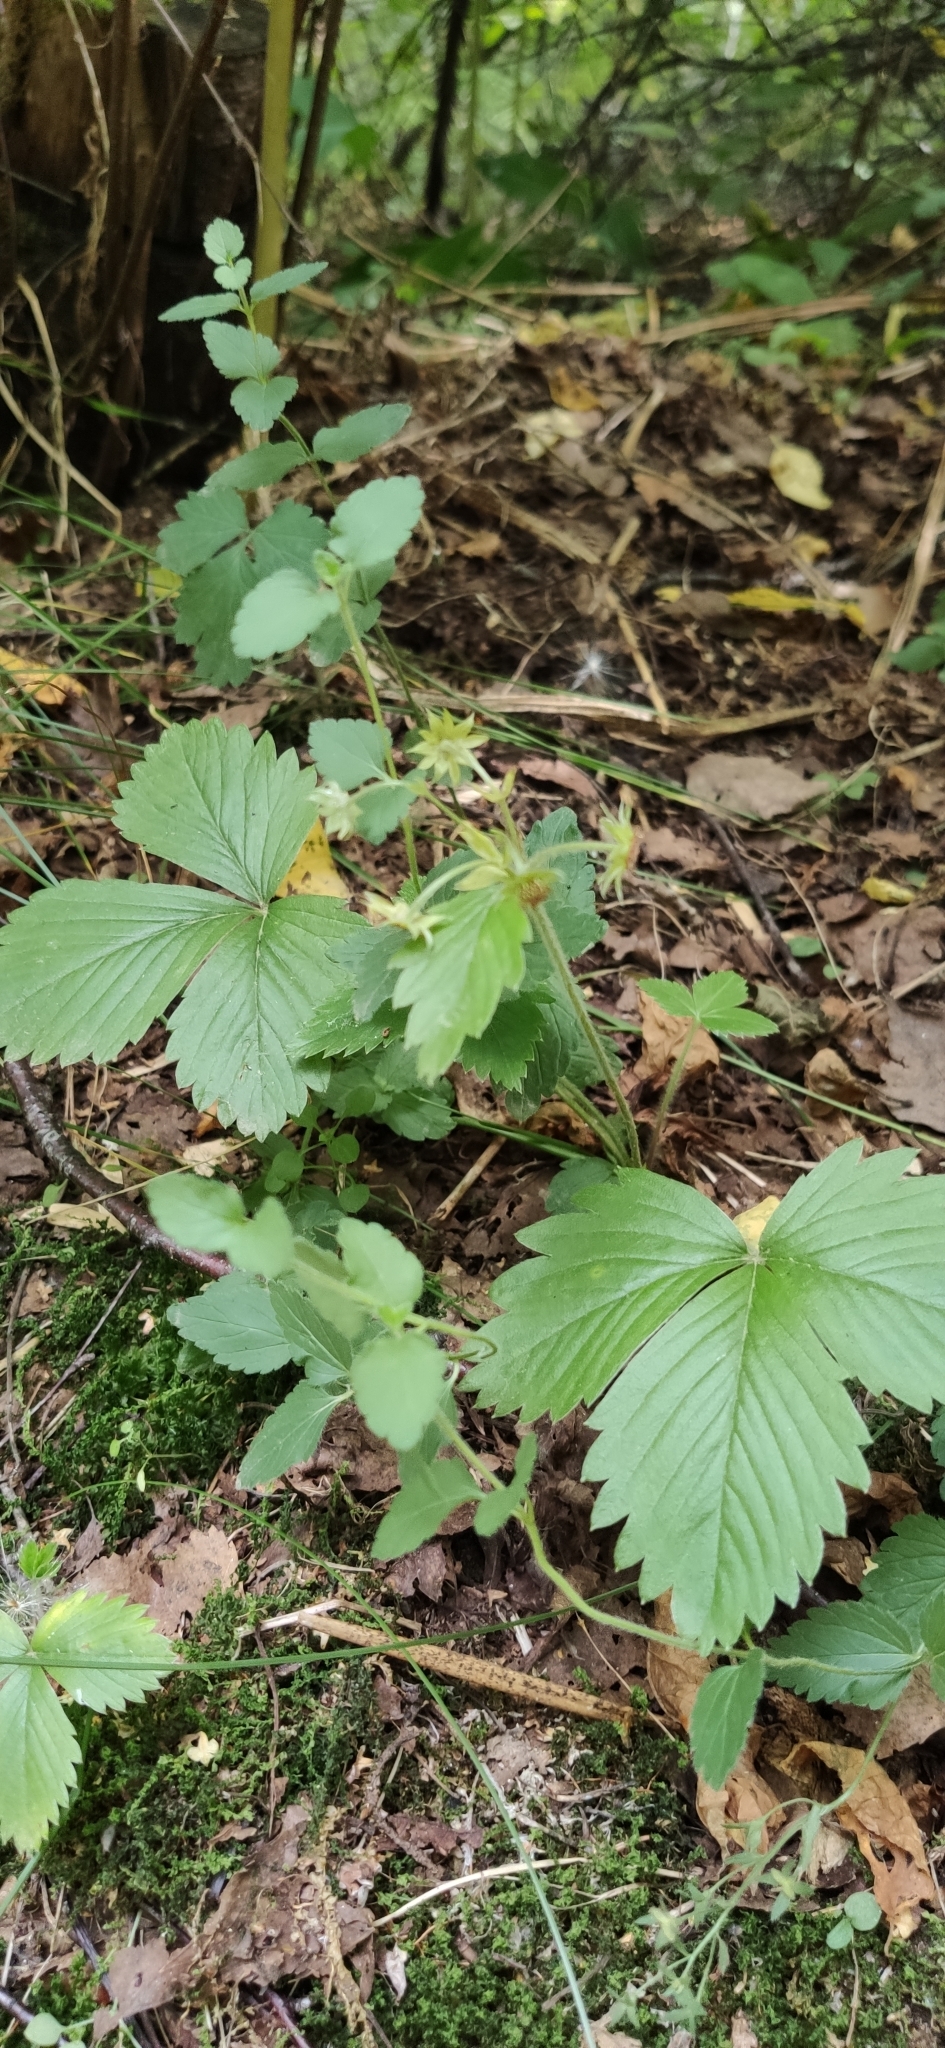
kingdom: Plantae
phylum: Tracheophyta
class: Magnoliopsida
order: Rosales
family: Rosaceae
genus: Fragaria
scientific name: Fragaria vesca
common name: Wild strawberry
